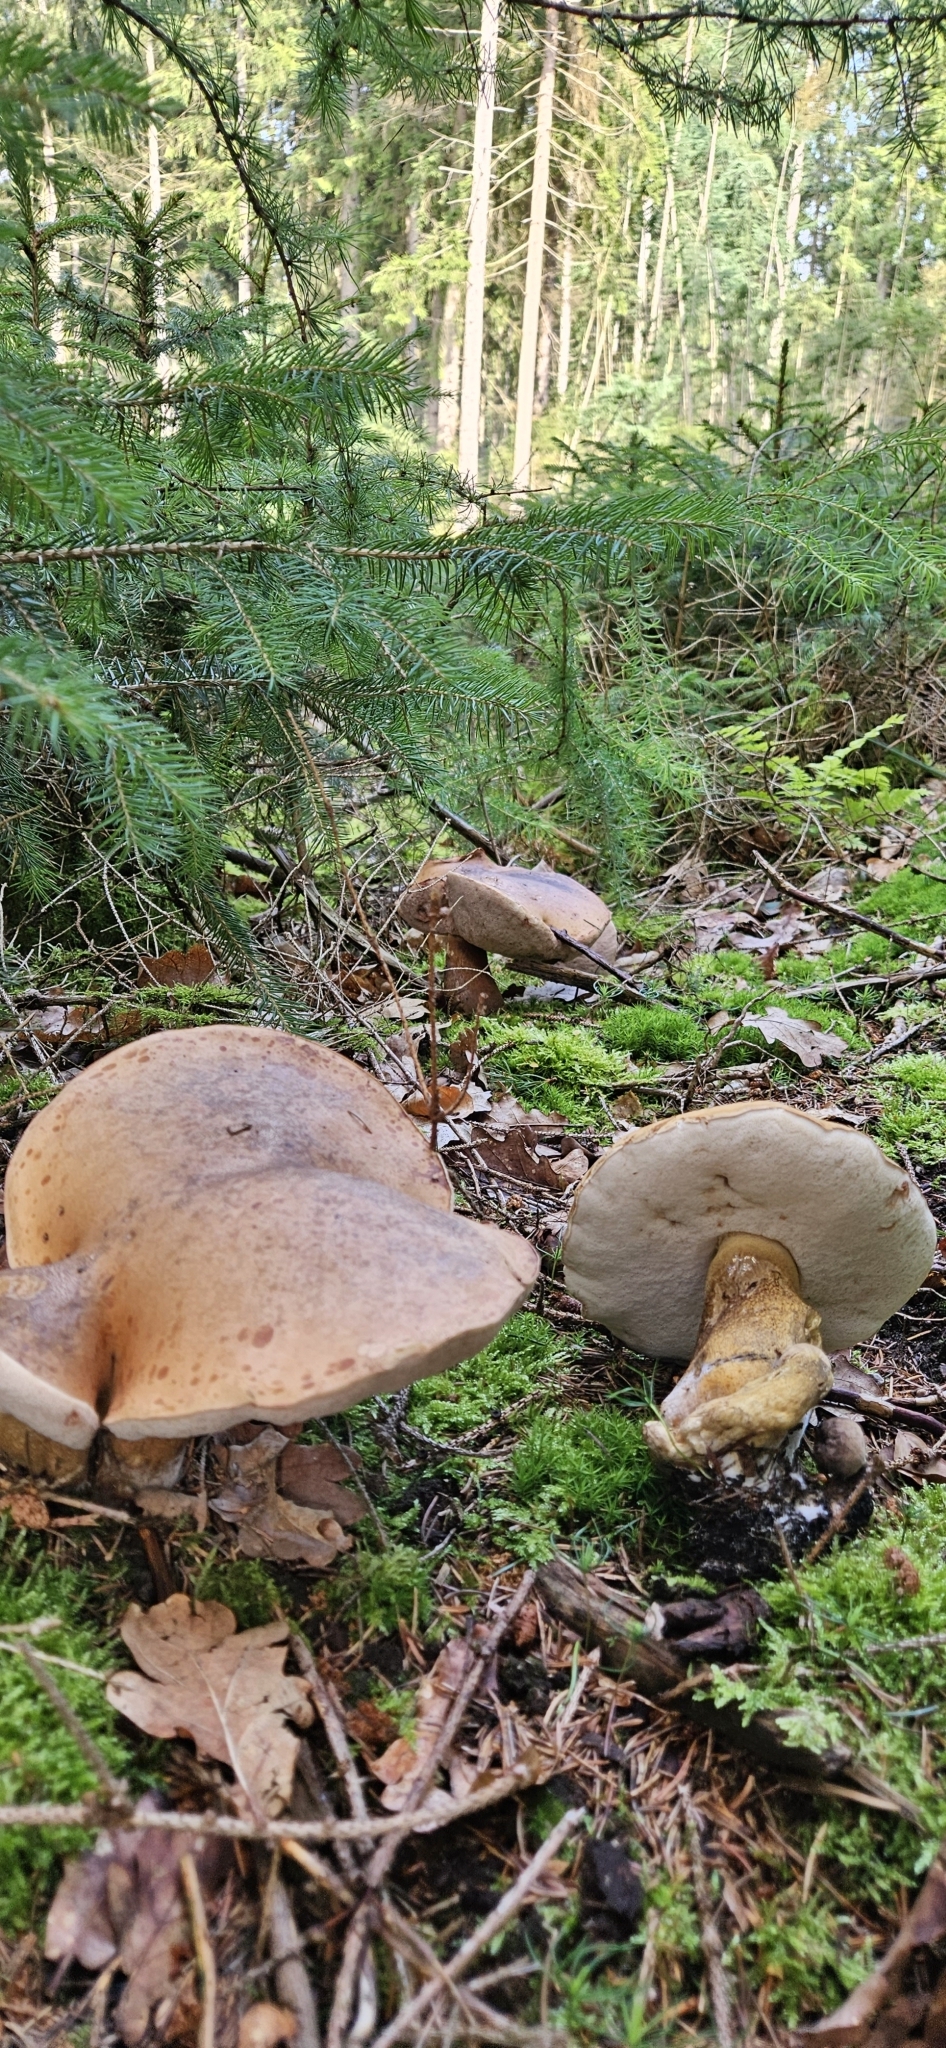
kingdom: Fungi
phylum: Basidiomycota
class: Agaricomycetes
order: Boletales
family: Boletaceae
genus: Tylopilus
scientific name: Tylopilus felleus
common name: Bitter bolete
